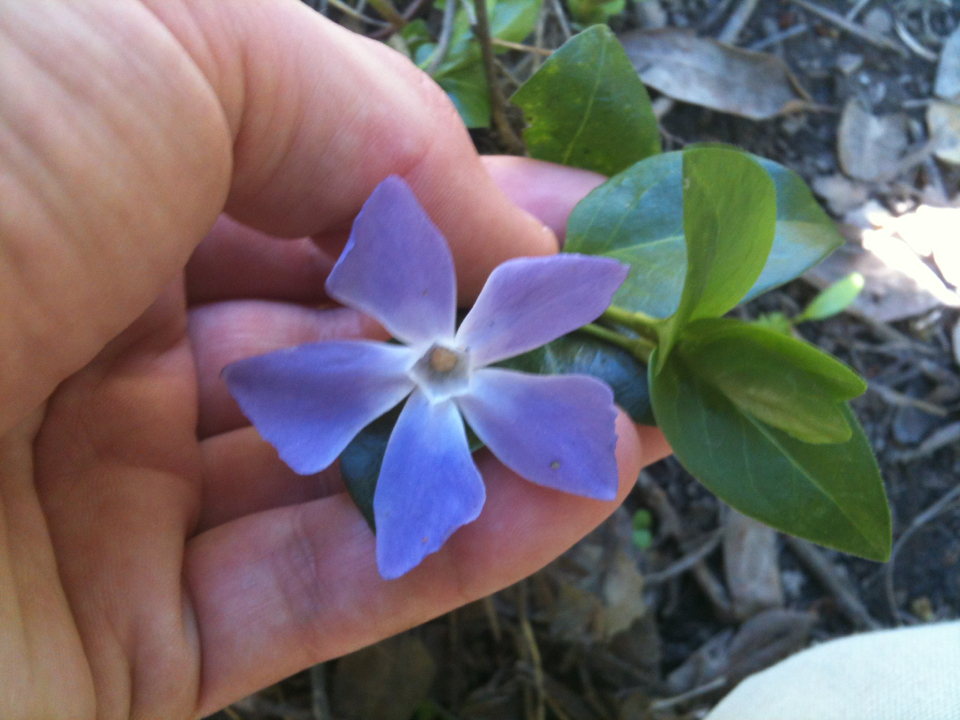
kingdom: Plantae
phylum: Tracheophyta
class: Magnoliopsida
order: Gentianales
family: Apocynaceae
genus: Vinca
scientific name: Vinca major
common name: Greater periwinkle
